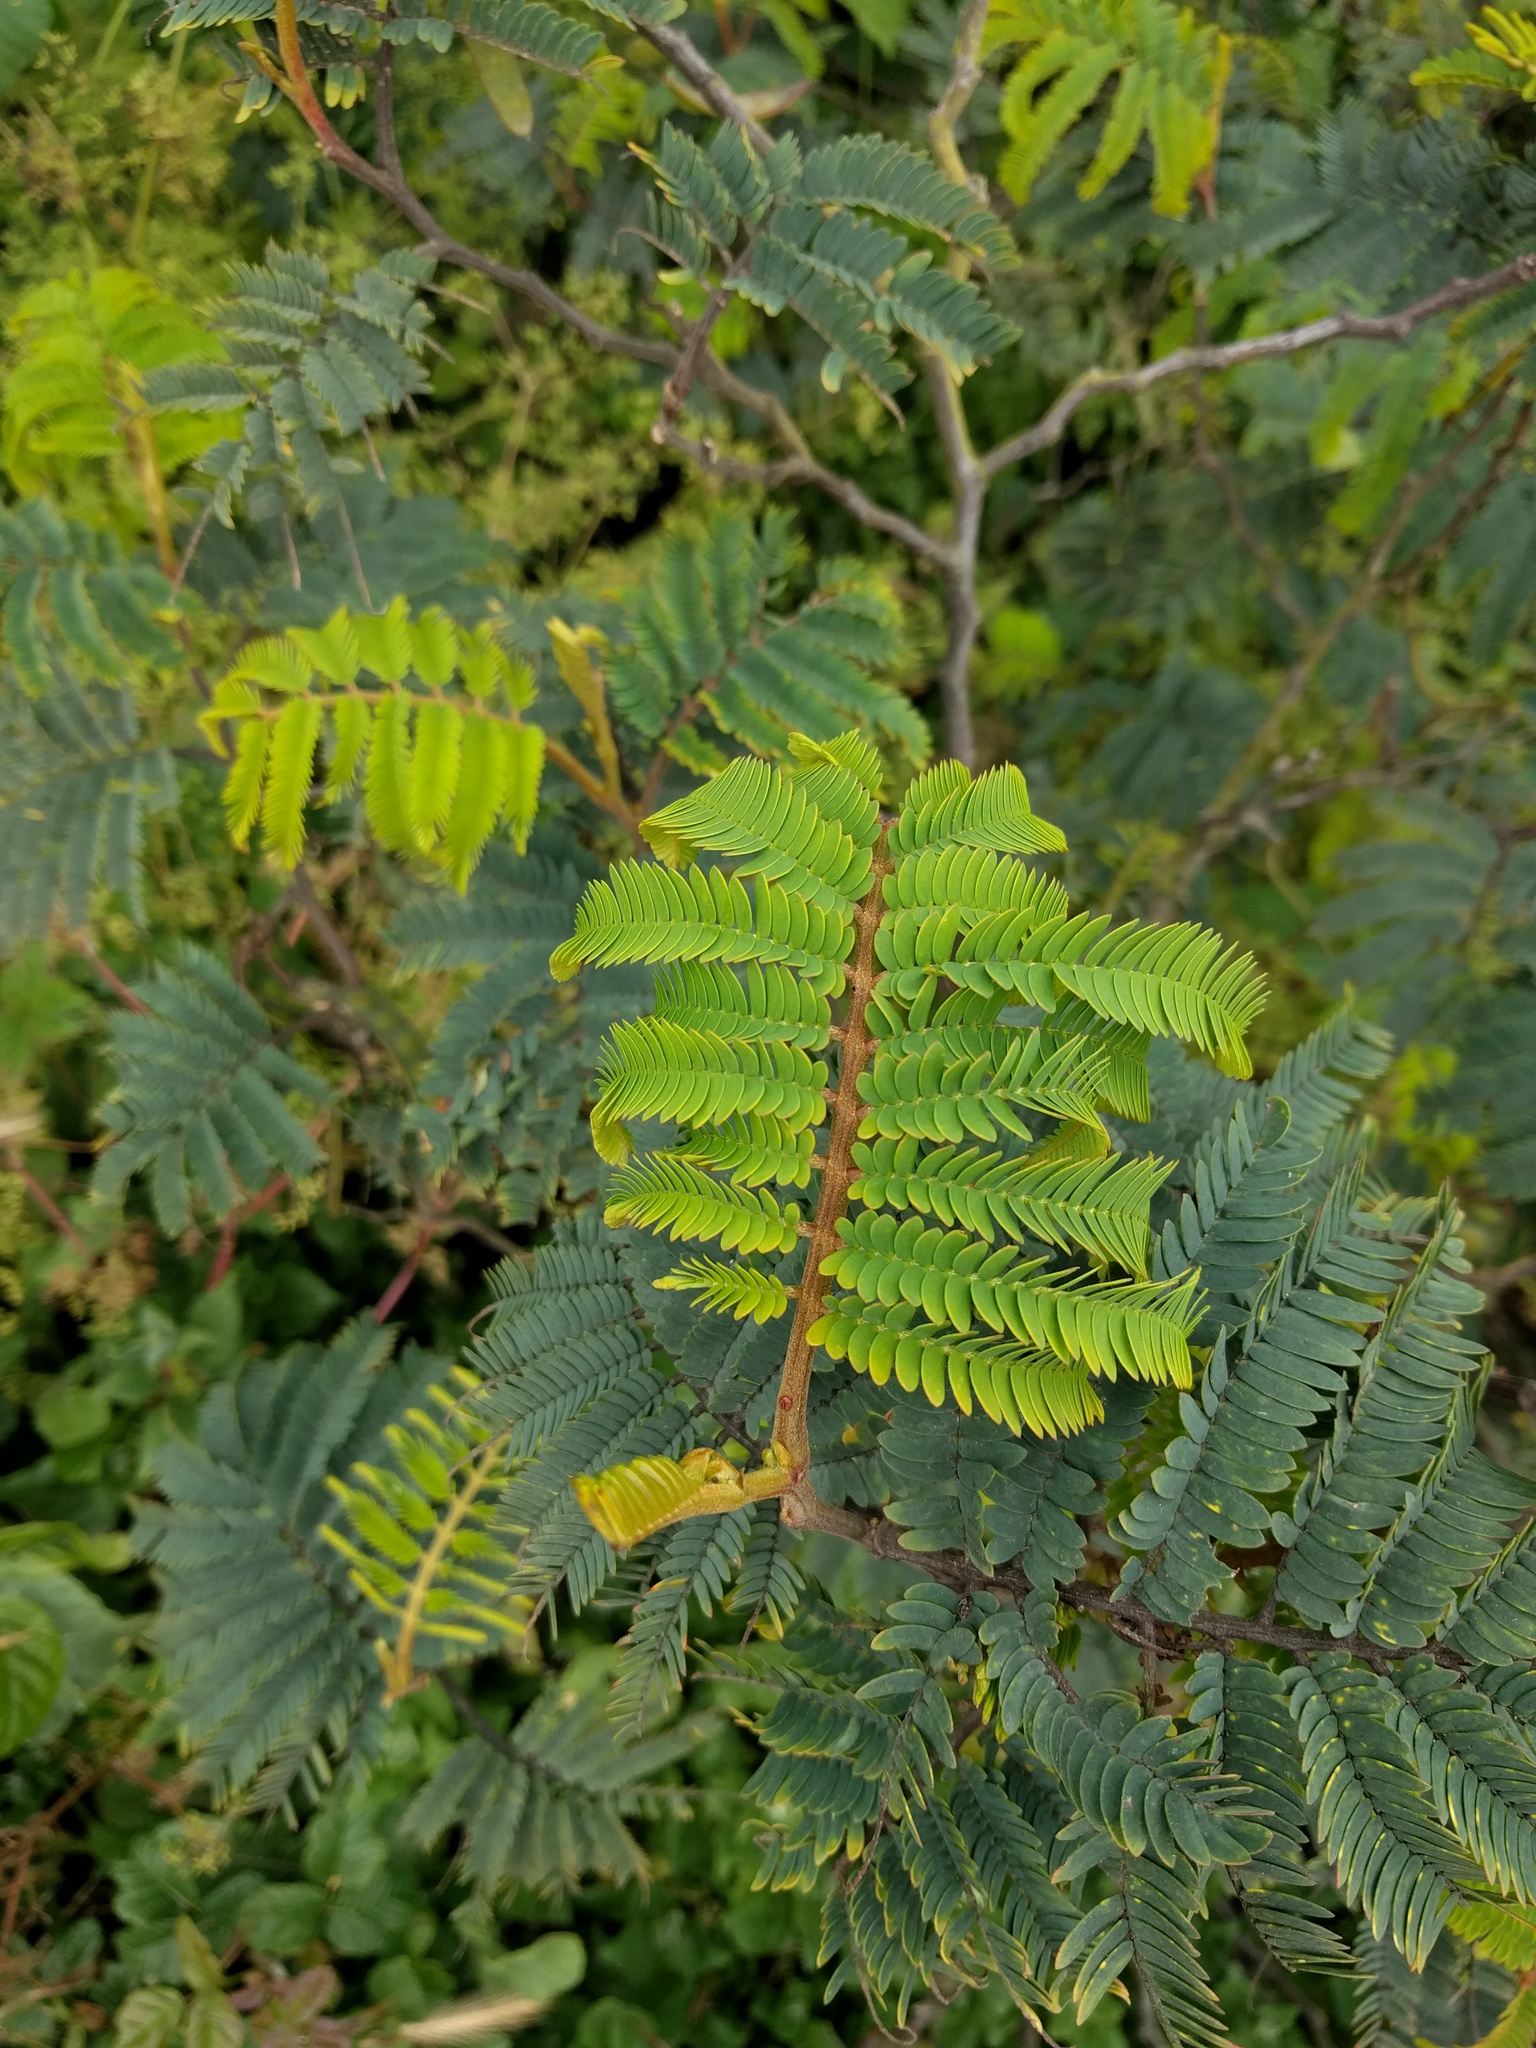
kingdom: Plantae
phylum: Tracheophyta
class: Magnoliopsida
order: Fabales
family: Fabaceae
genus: Paraserianthes
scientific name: Paraserianthes lophantha
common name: Plume albizia
